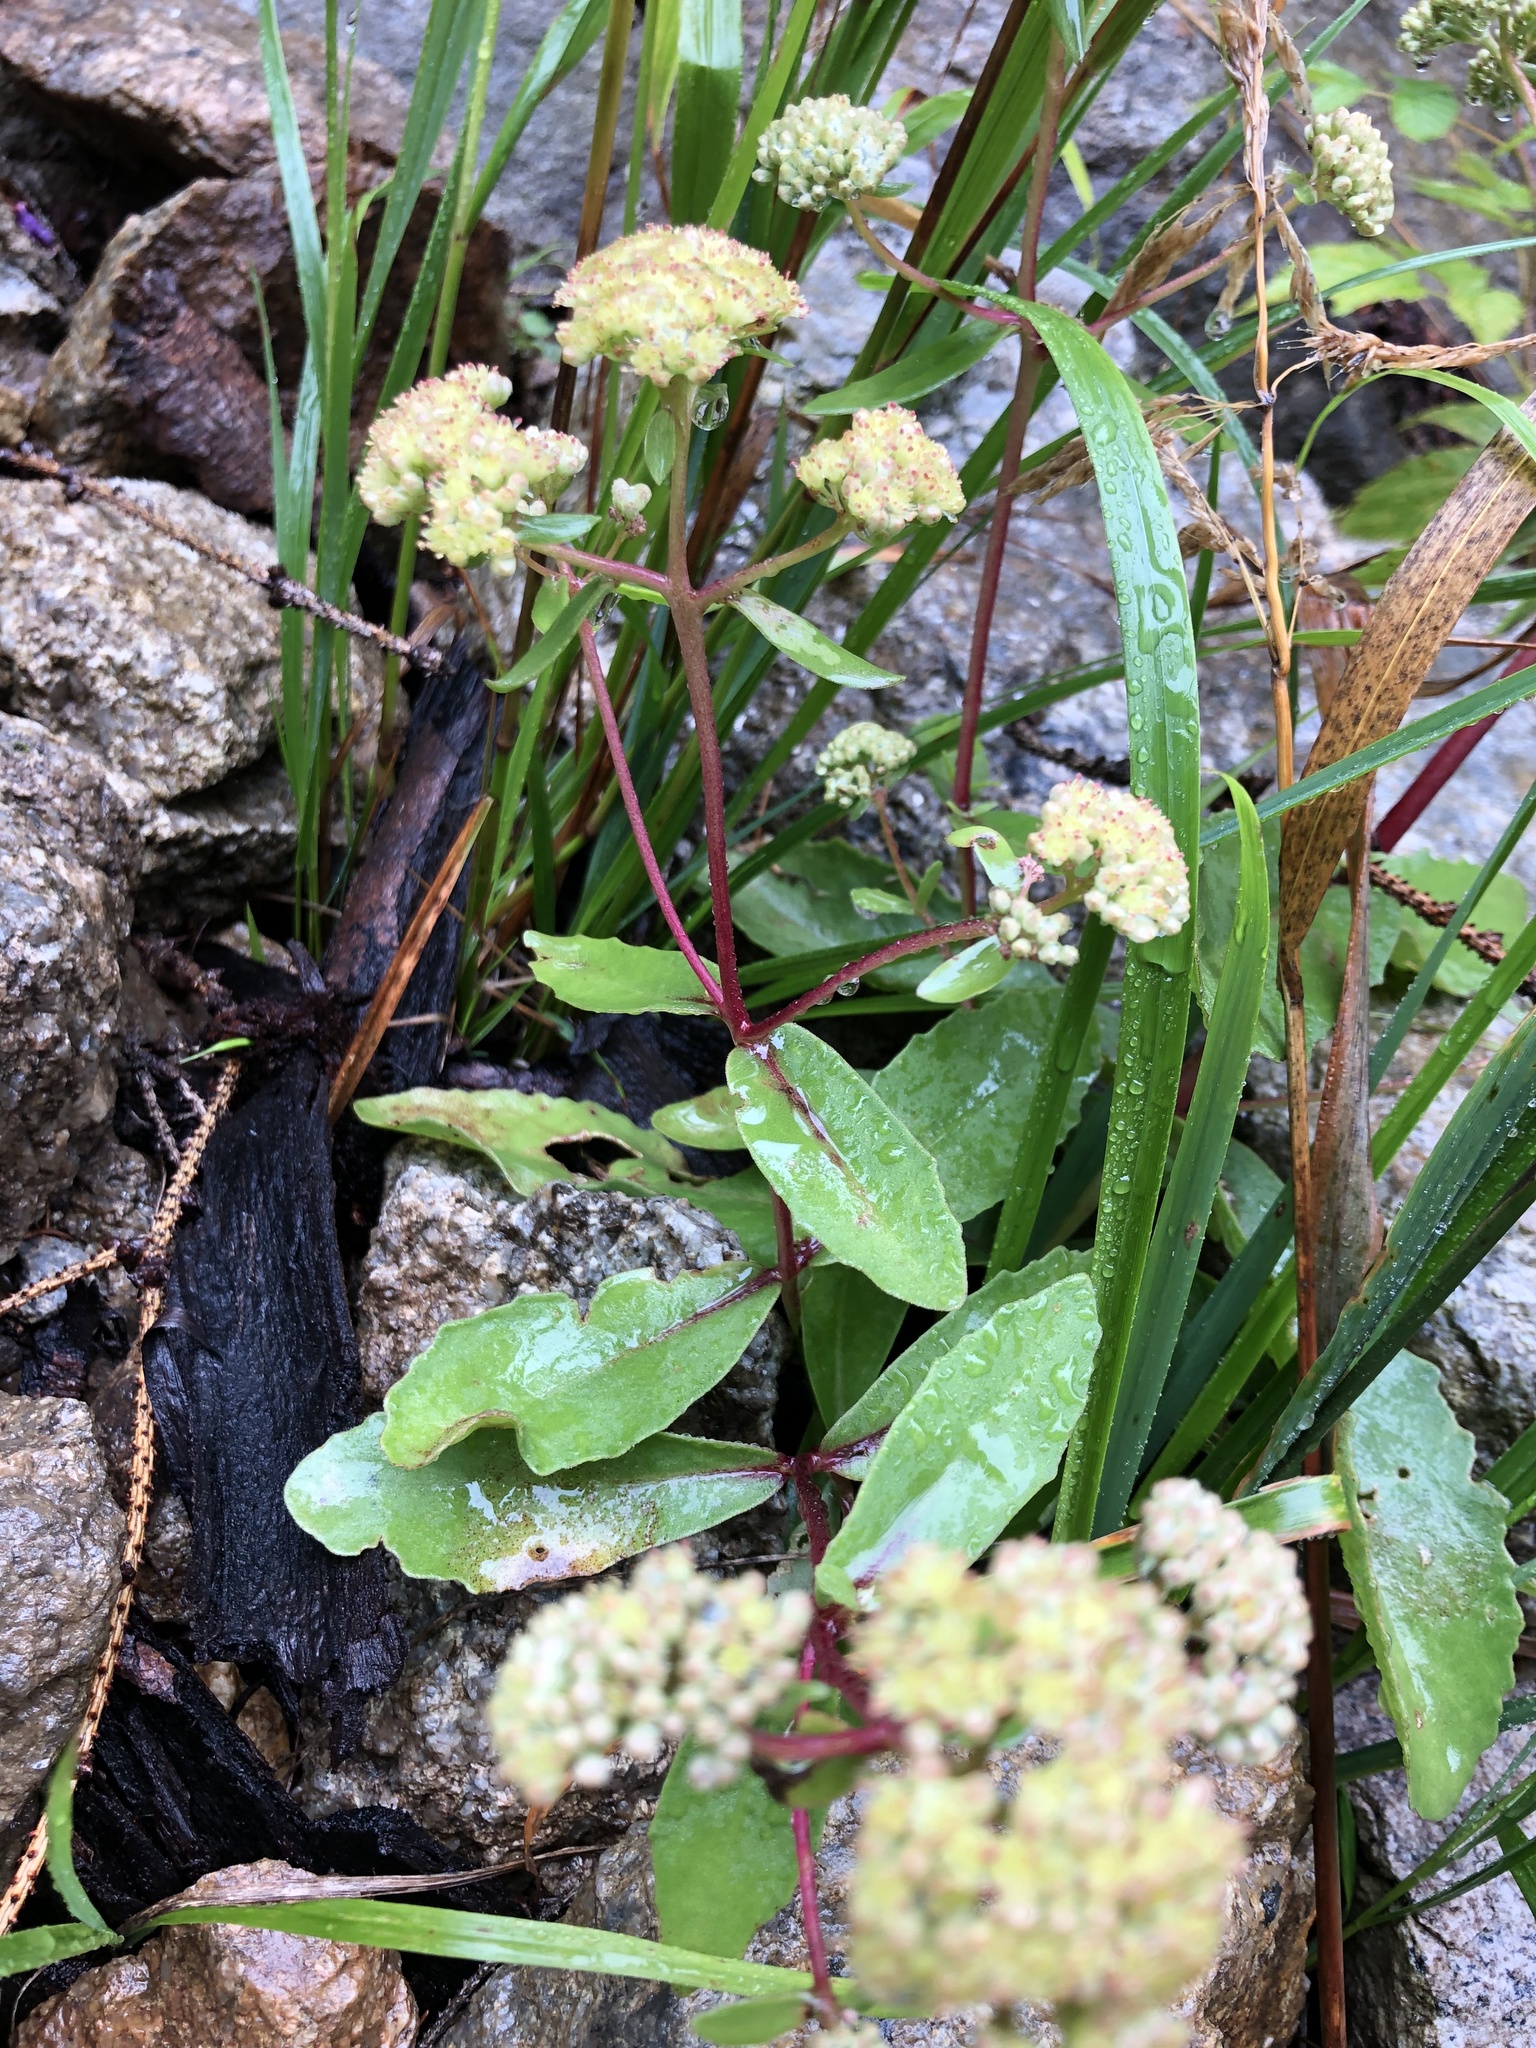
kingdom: Plantae
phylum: Tracheophyta
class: Magnoliopsida
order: Saxifragales
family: Crassulaceae
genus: Hylotelephium
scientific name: Hylotelephium maximum
